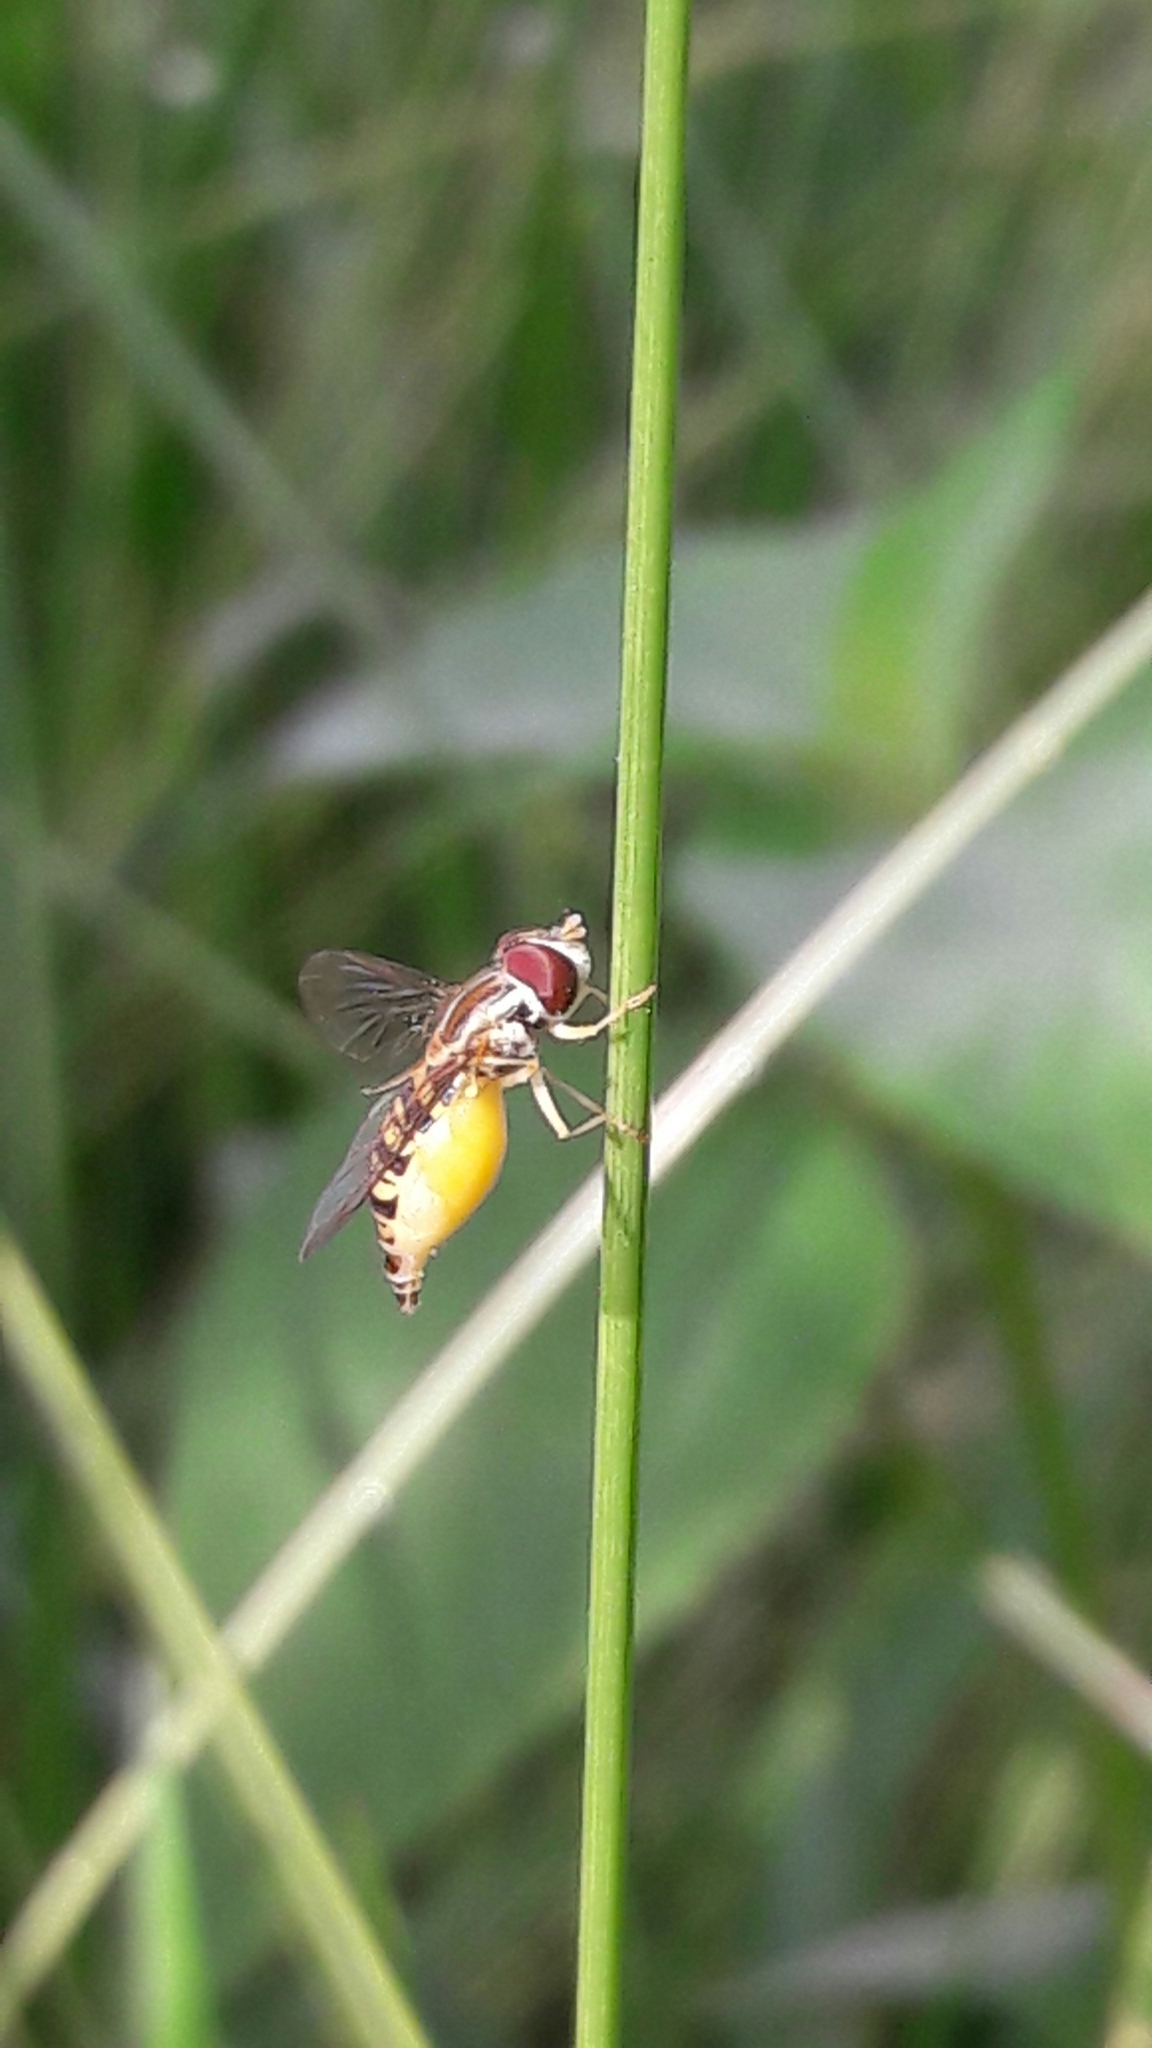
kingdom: Animalia
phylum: Arthropoda
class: Insecta
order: Diptera
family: Syrphidae
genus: Toxomerus
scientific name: Toxomerus politus
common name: Maize calligrapher
